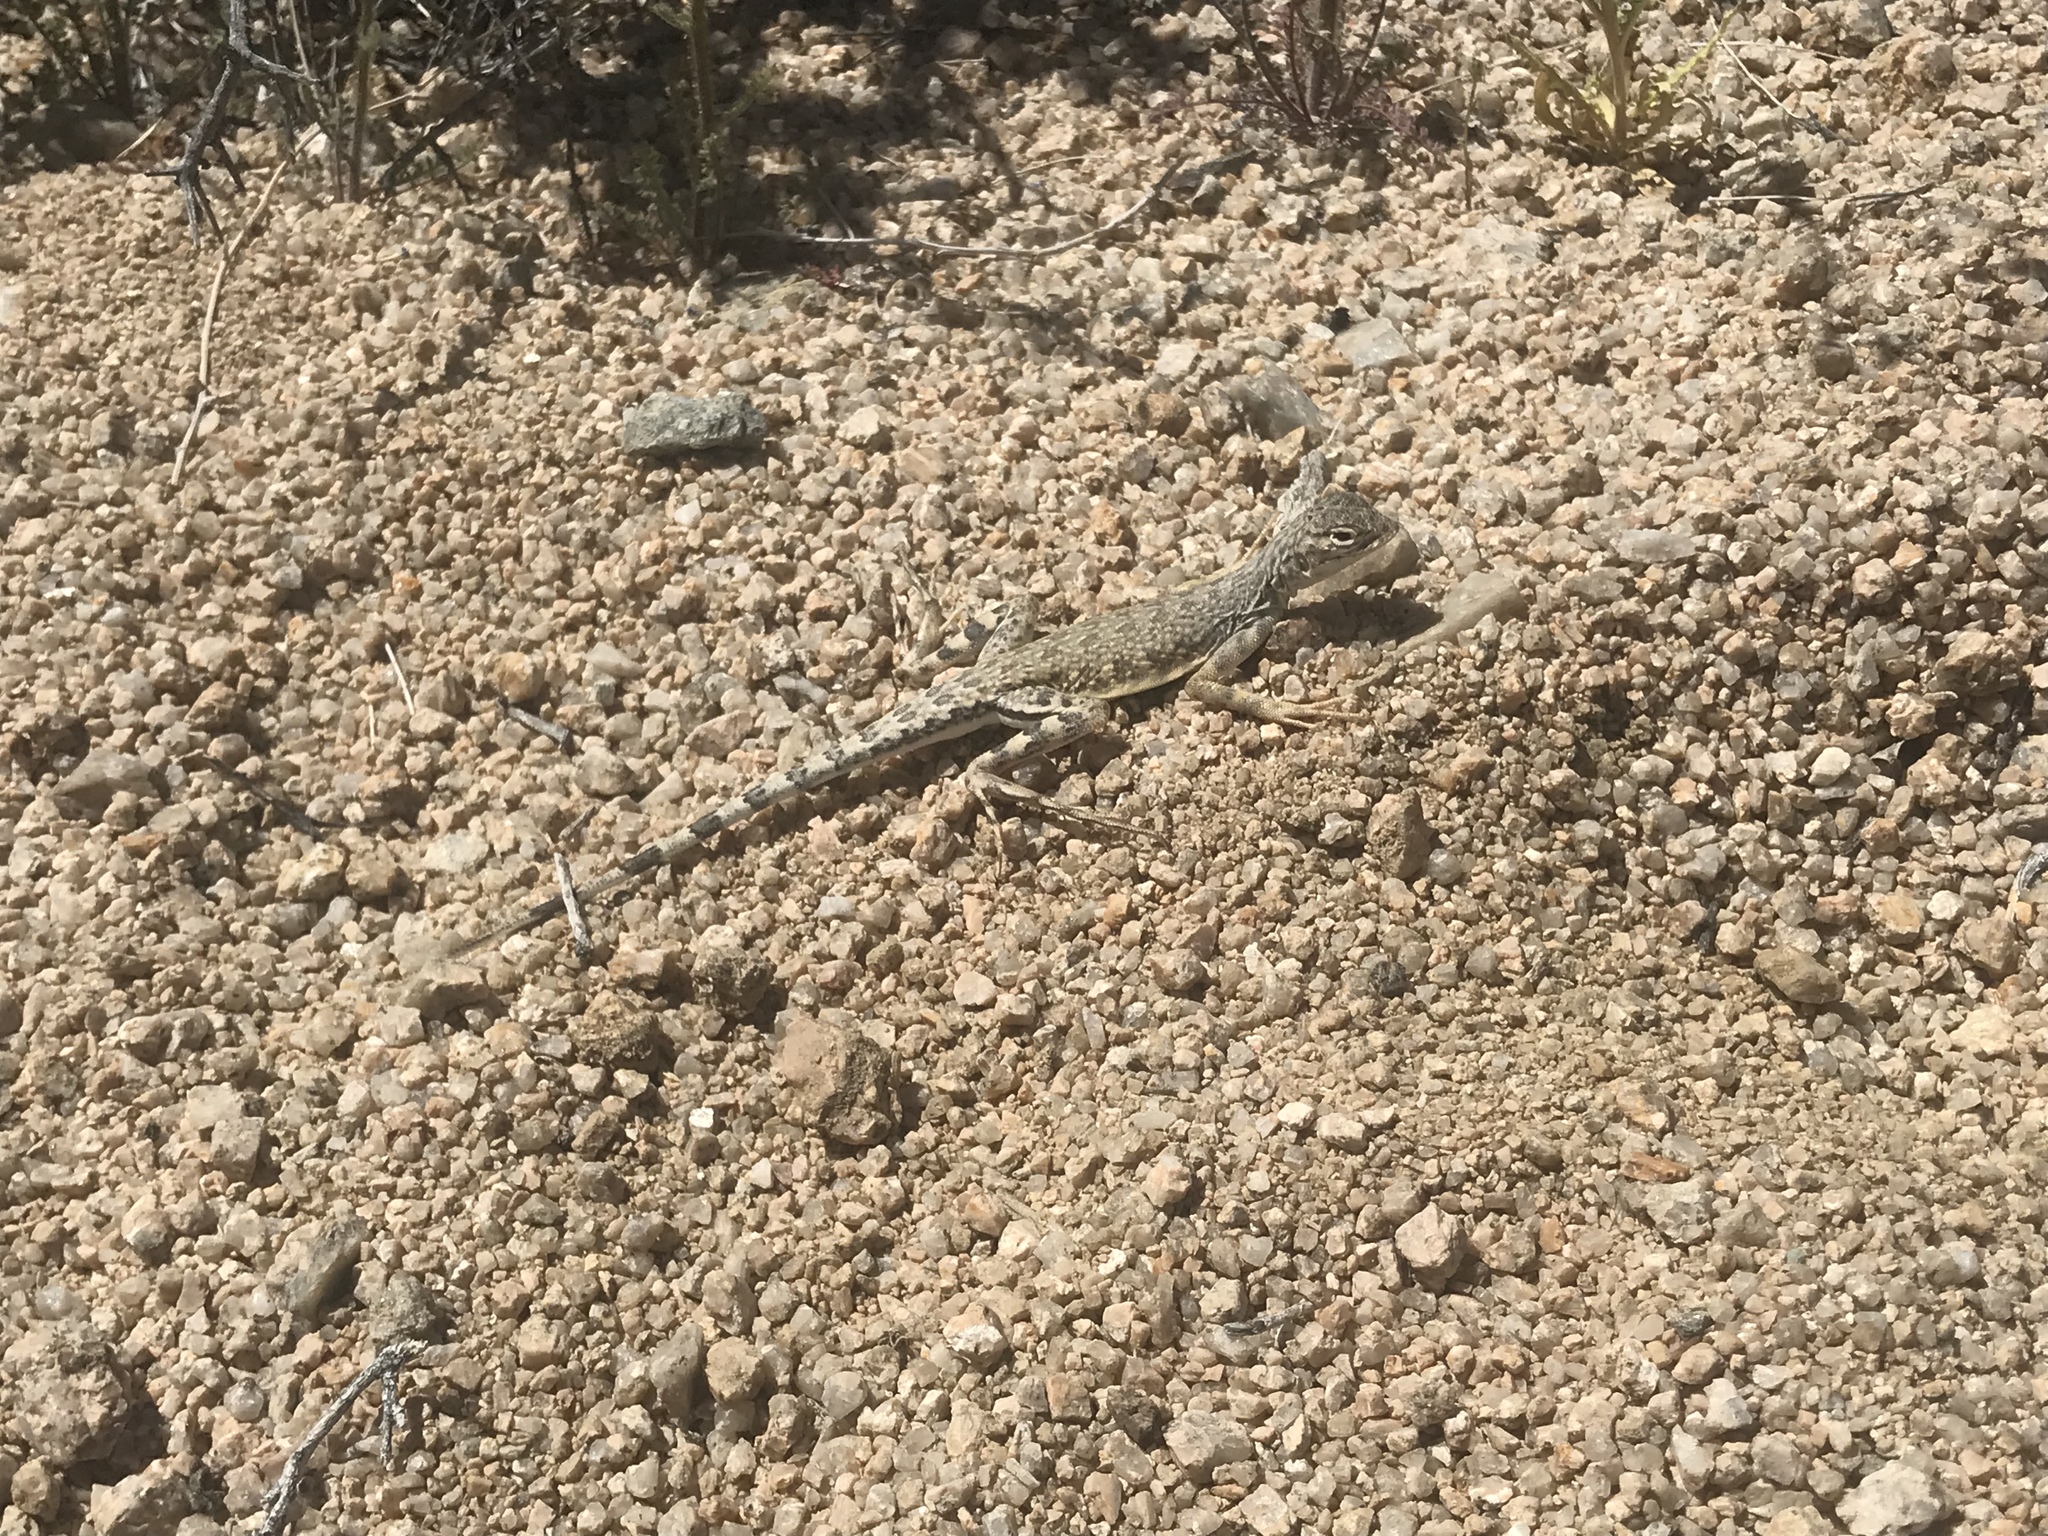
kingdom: Animalia
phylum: Chordata
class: Squamata
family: Phrynosomatidae
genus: Callisaurus
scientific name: Callisaurus draconoides
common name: Zebra-tailed lizard
